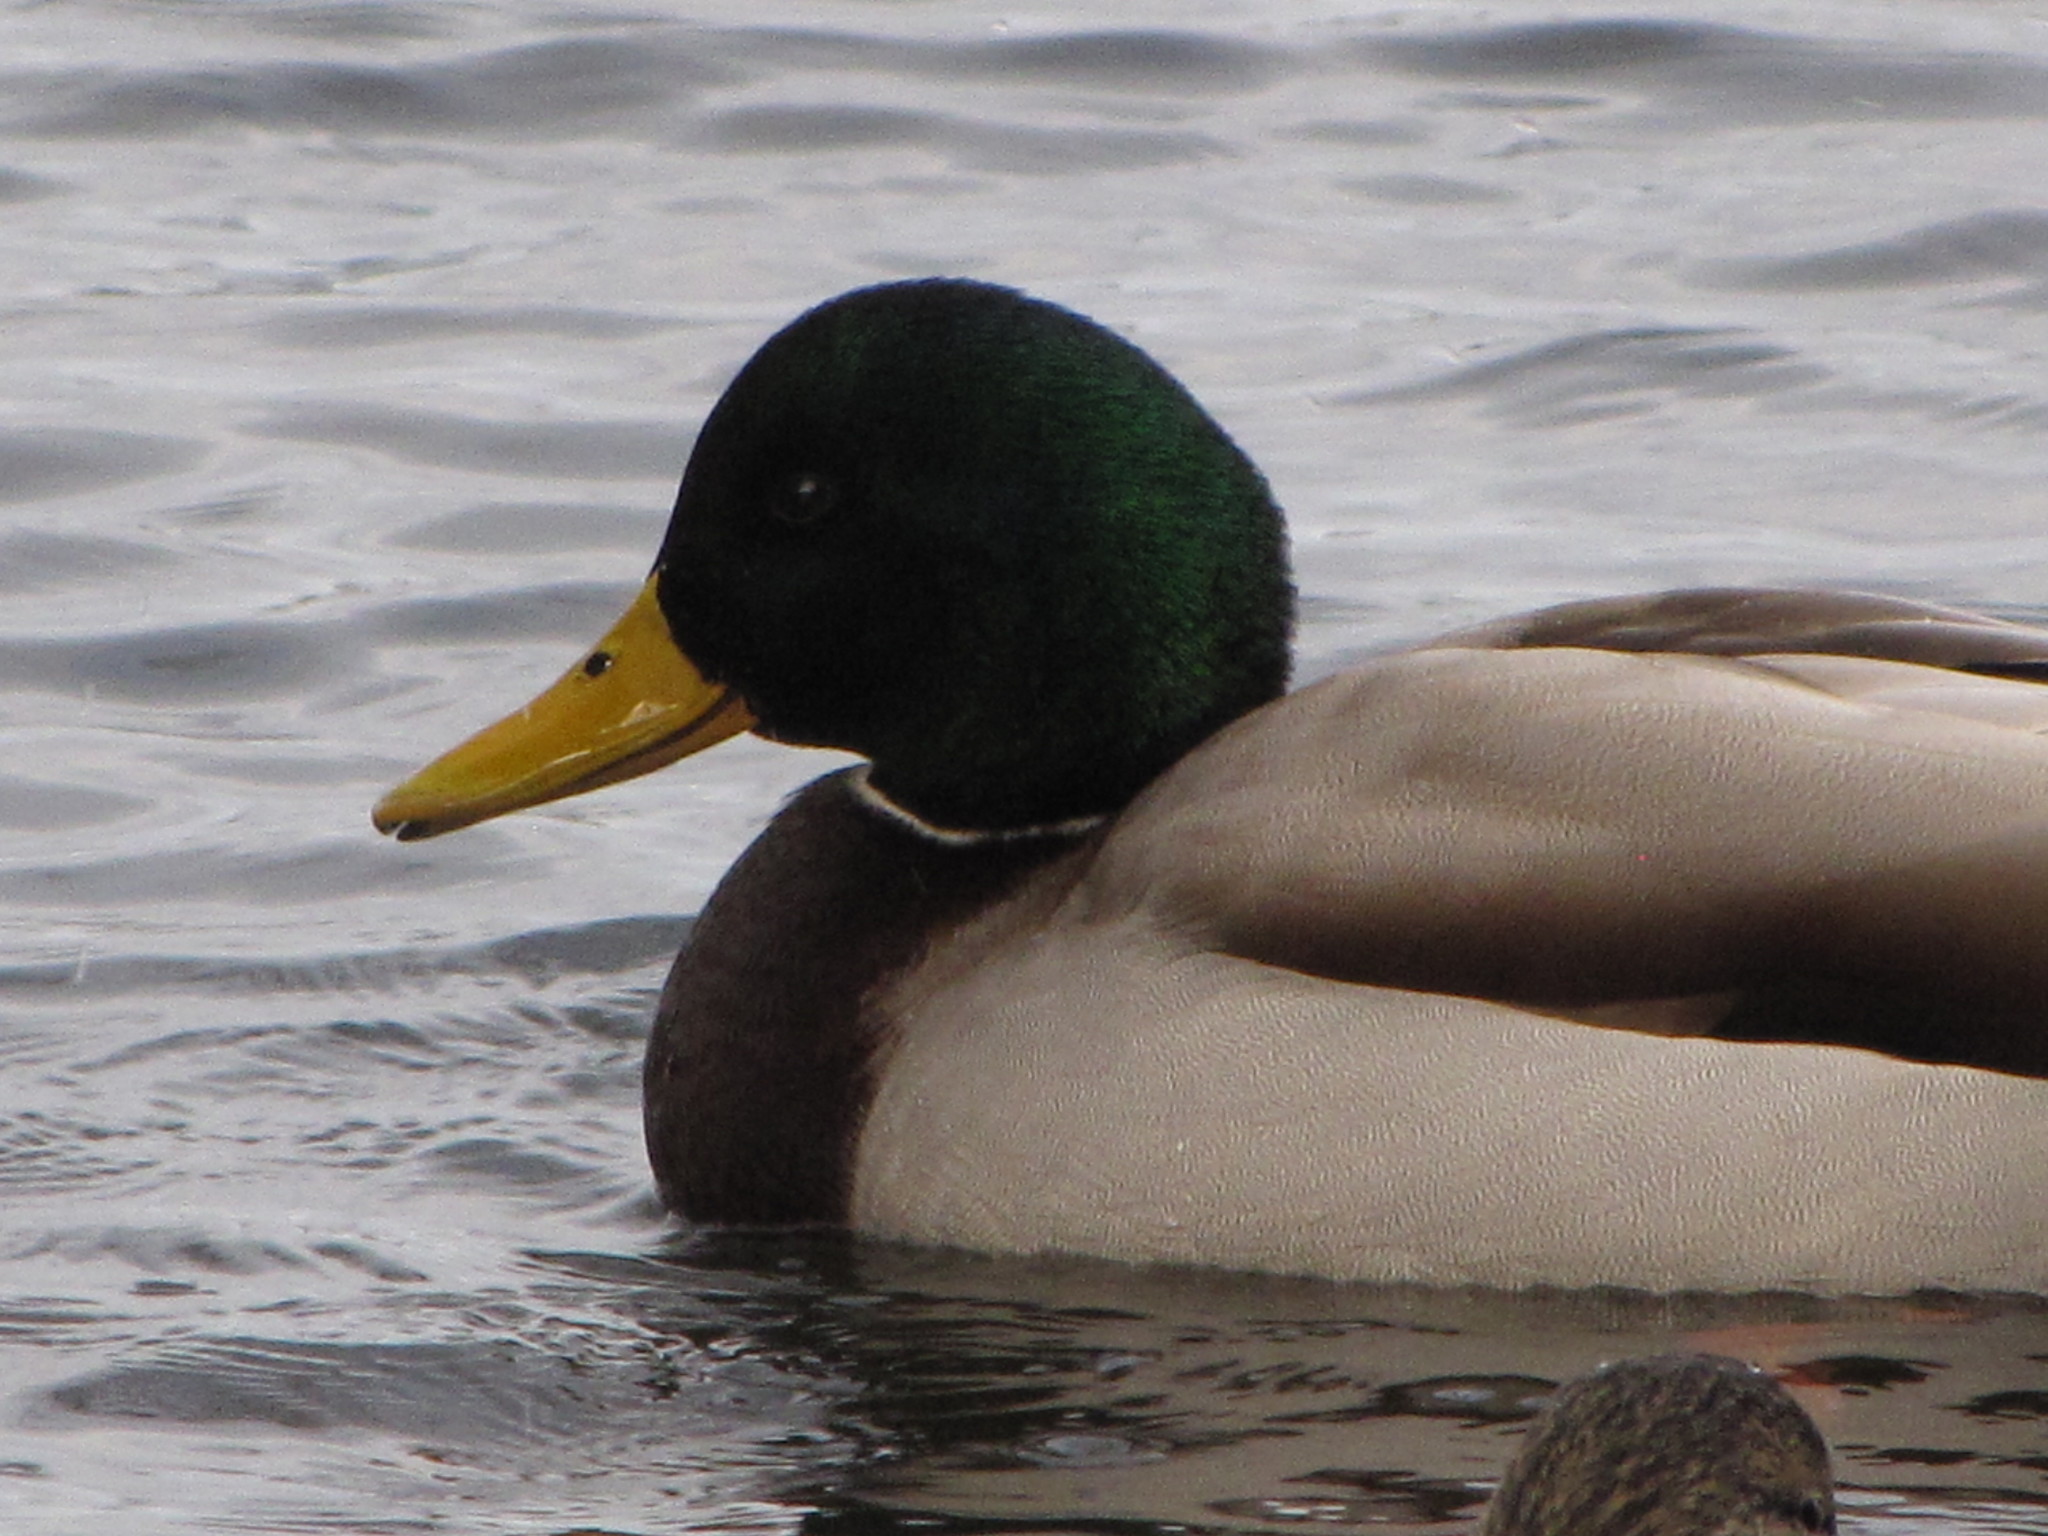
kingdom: Animalia
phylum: Chordata
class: Aves
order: Anseriformes
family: Anatidae
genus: Anas
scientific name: Anas platyrhynchos
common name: Mallard
